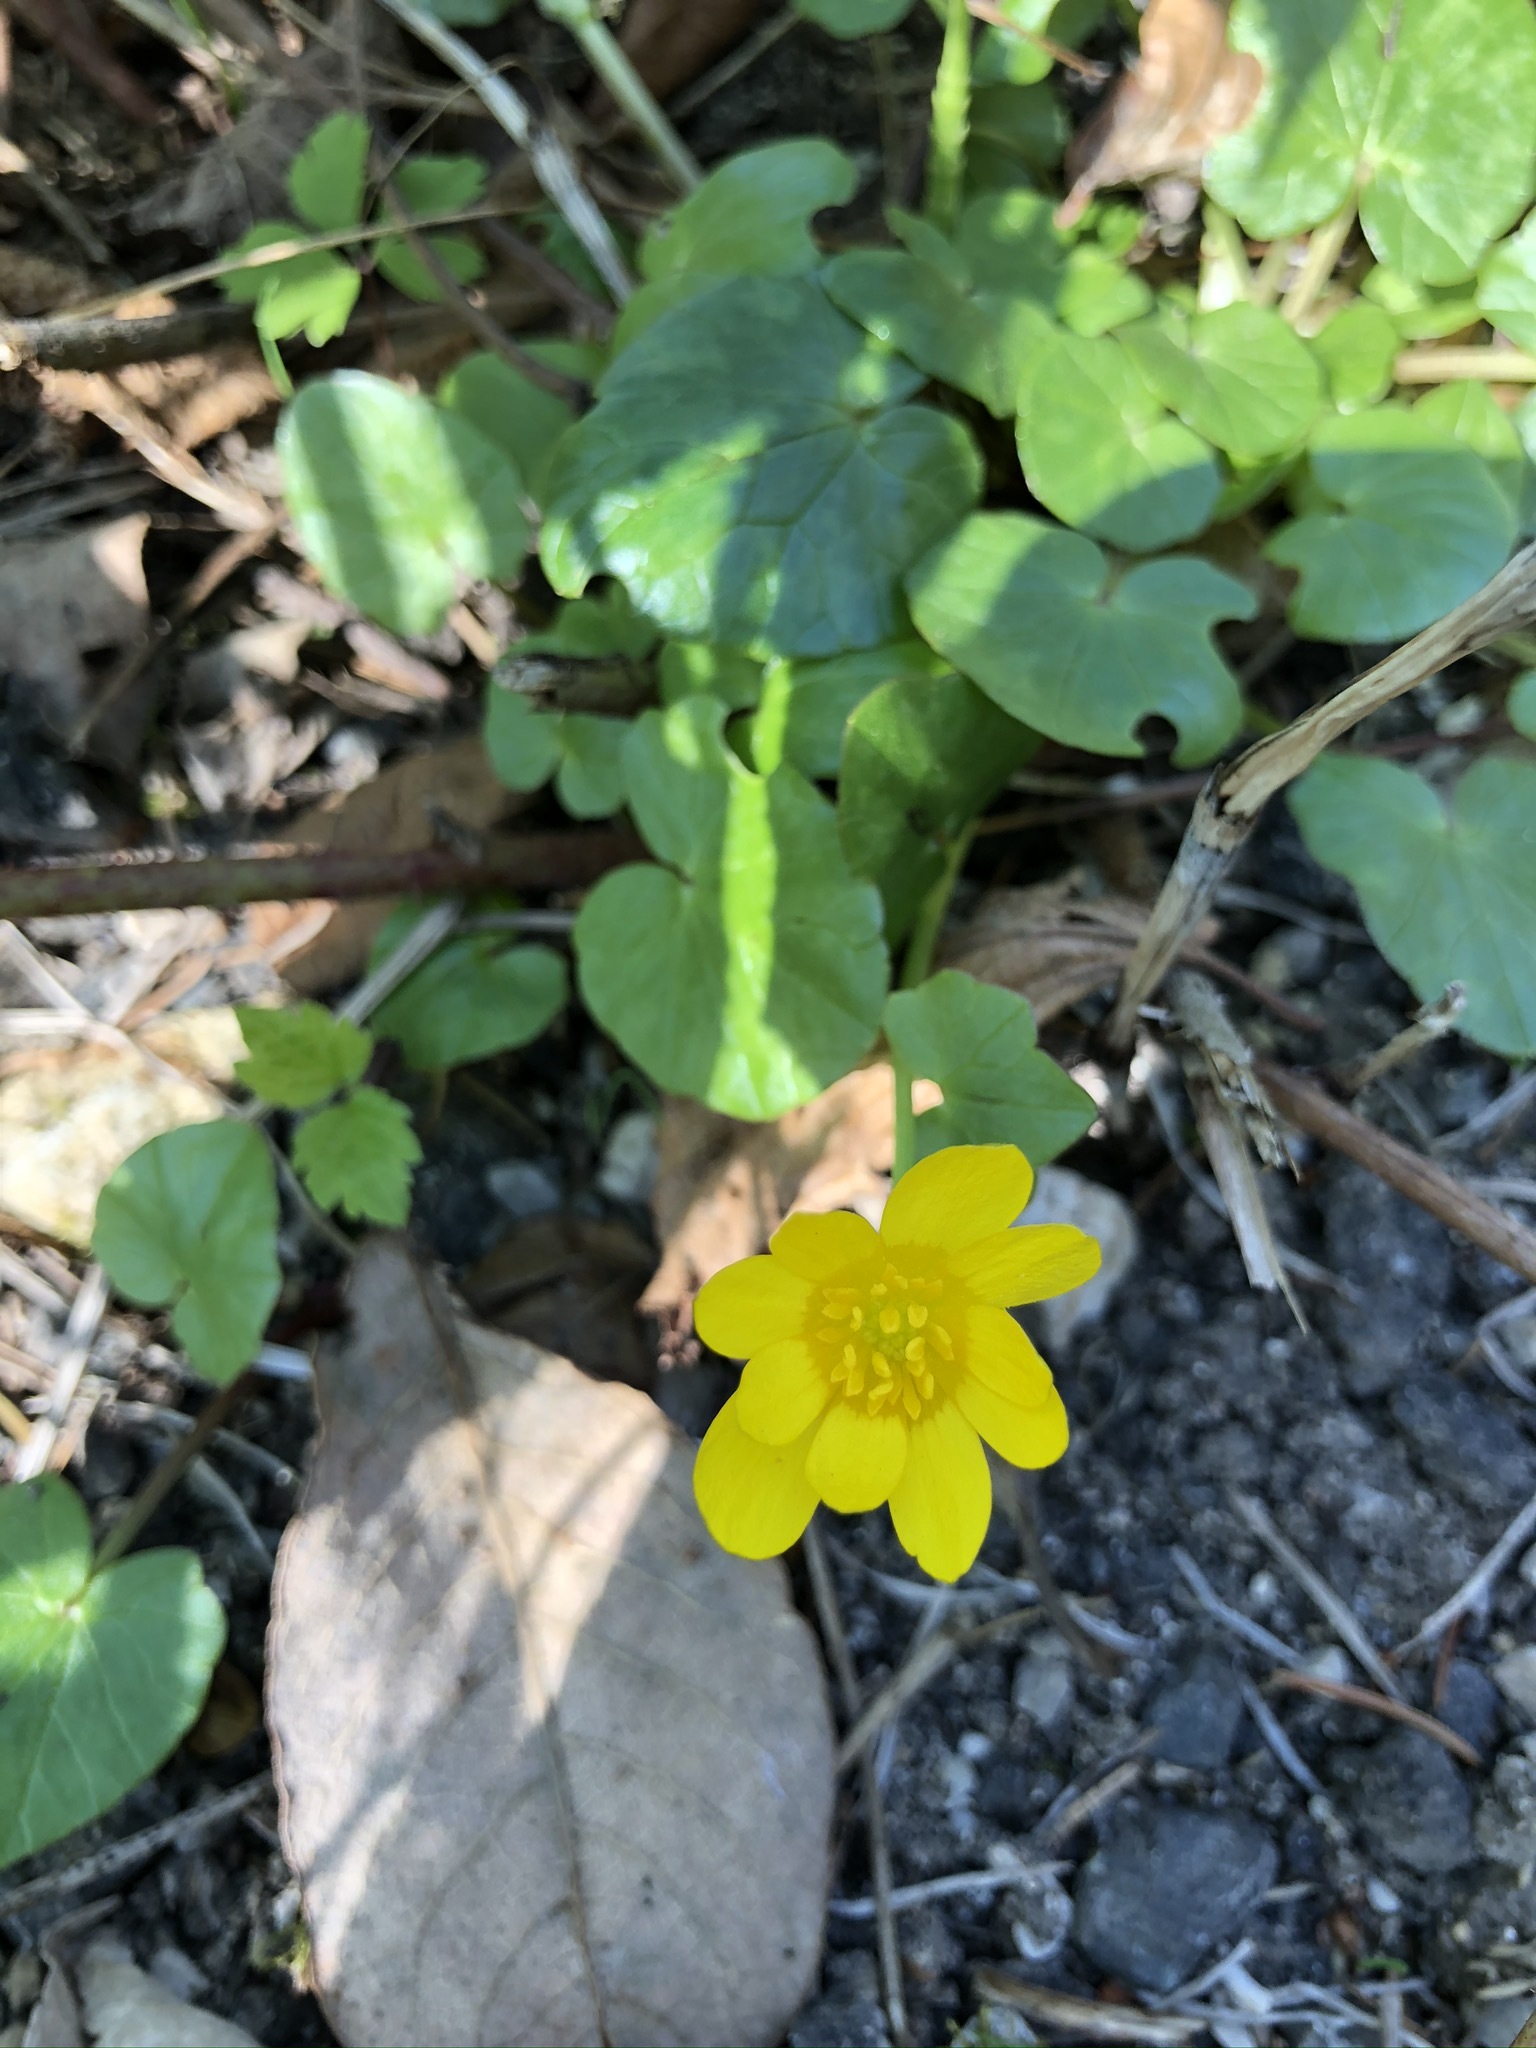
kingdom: Plantae
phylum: Tracheophyta
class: Magnoliopsida
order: Ranunculales
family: Ranunculaceae
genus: Ficaria
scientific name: Ficaria verna
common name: Lesser celandine
